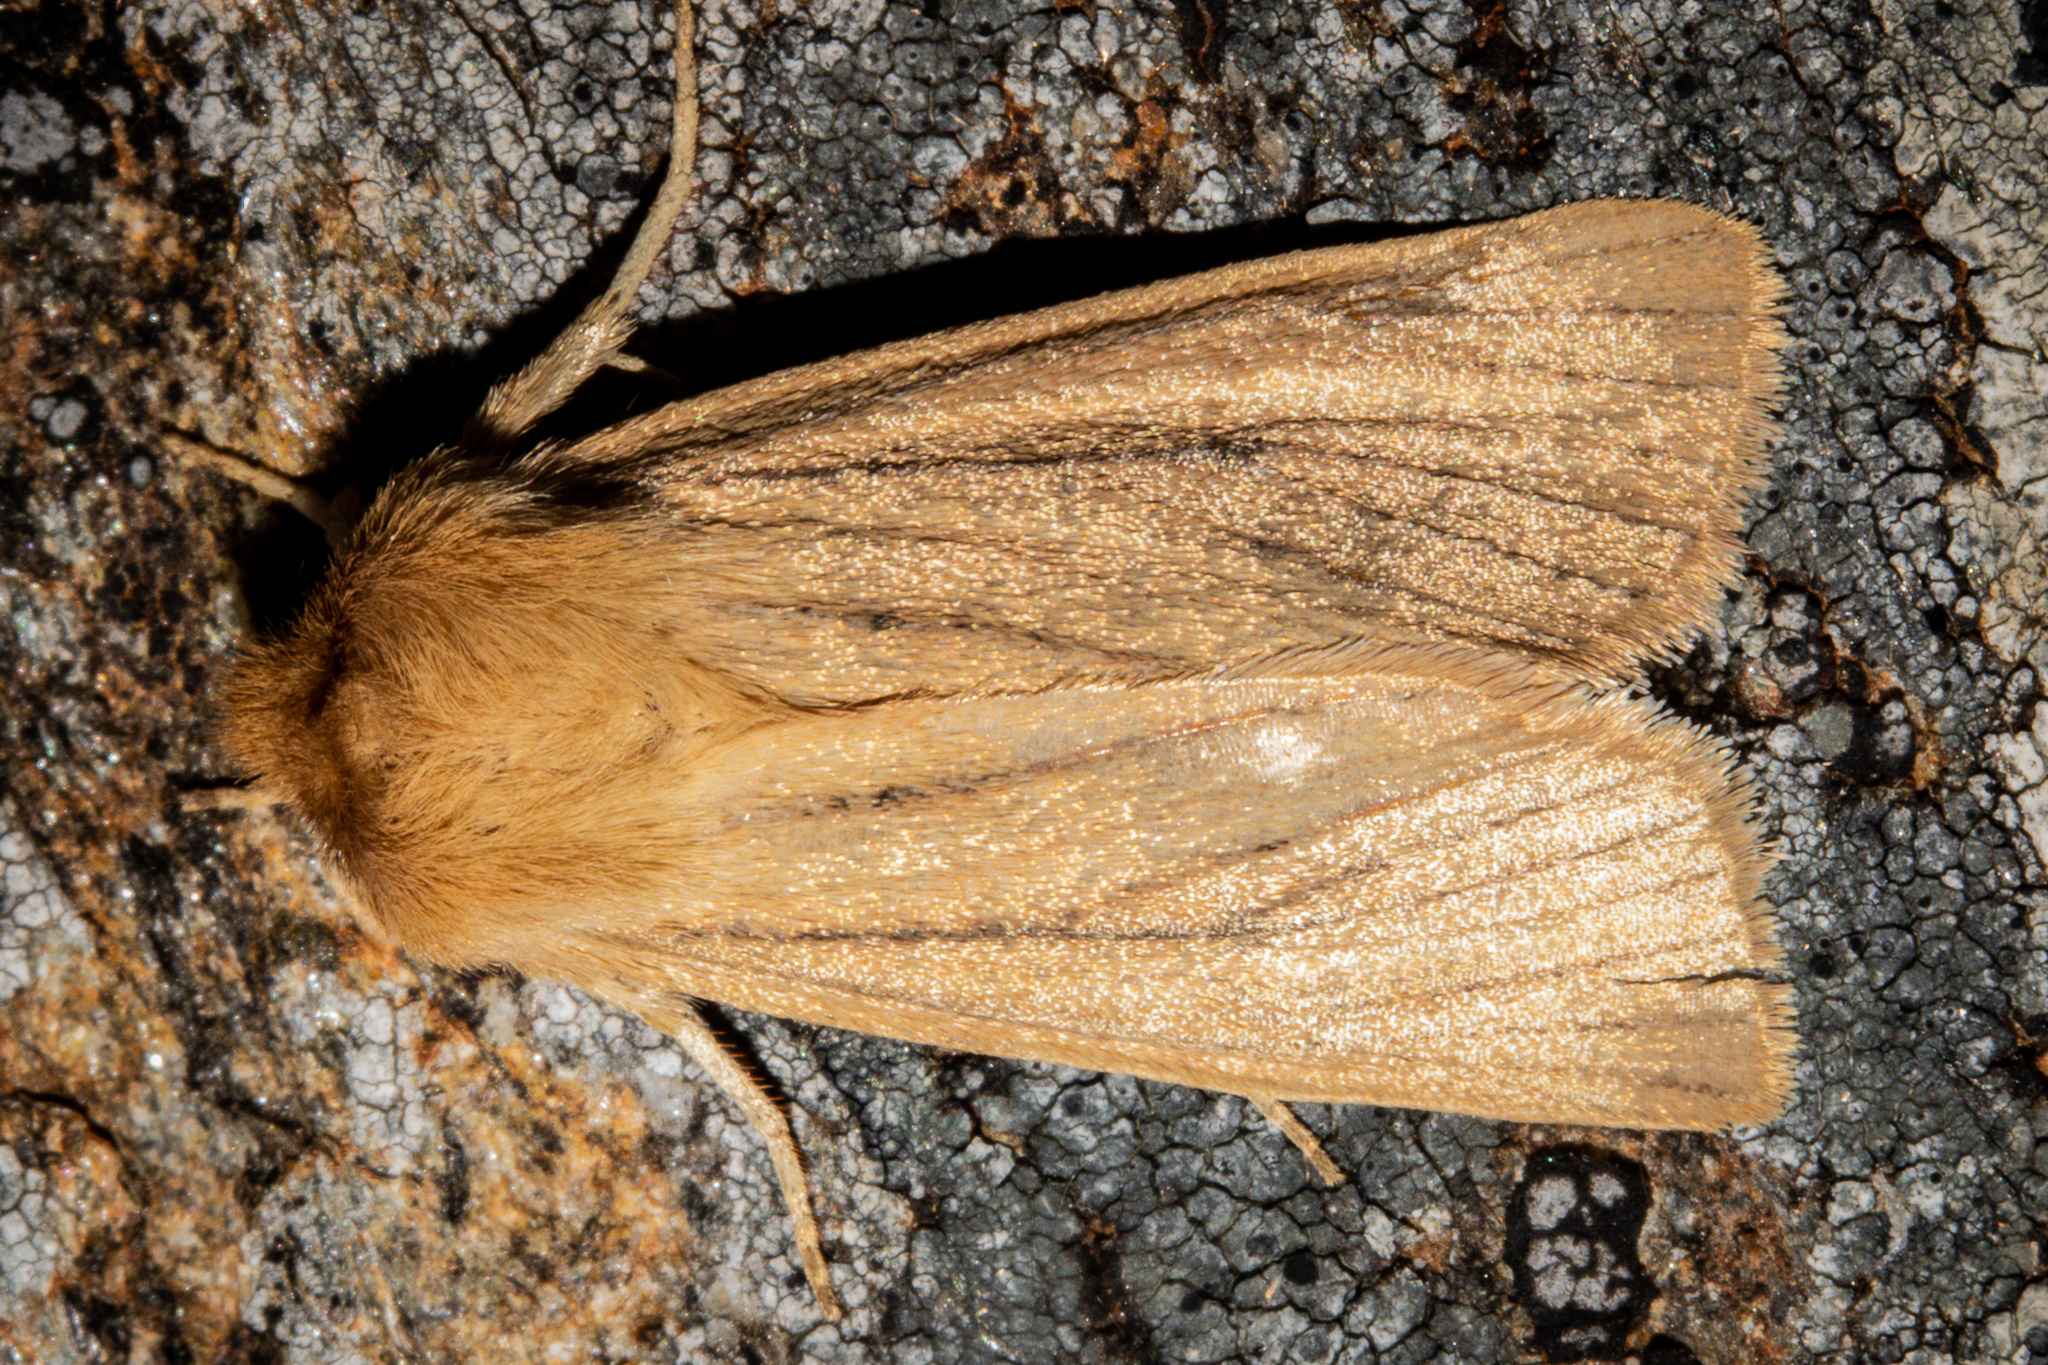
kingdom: Animalia
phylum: Arthropoda
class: Insecta
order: Lepidoptera
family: Noctuidae
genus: Ichneutica
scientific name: Ichneutica
